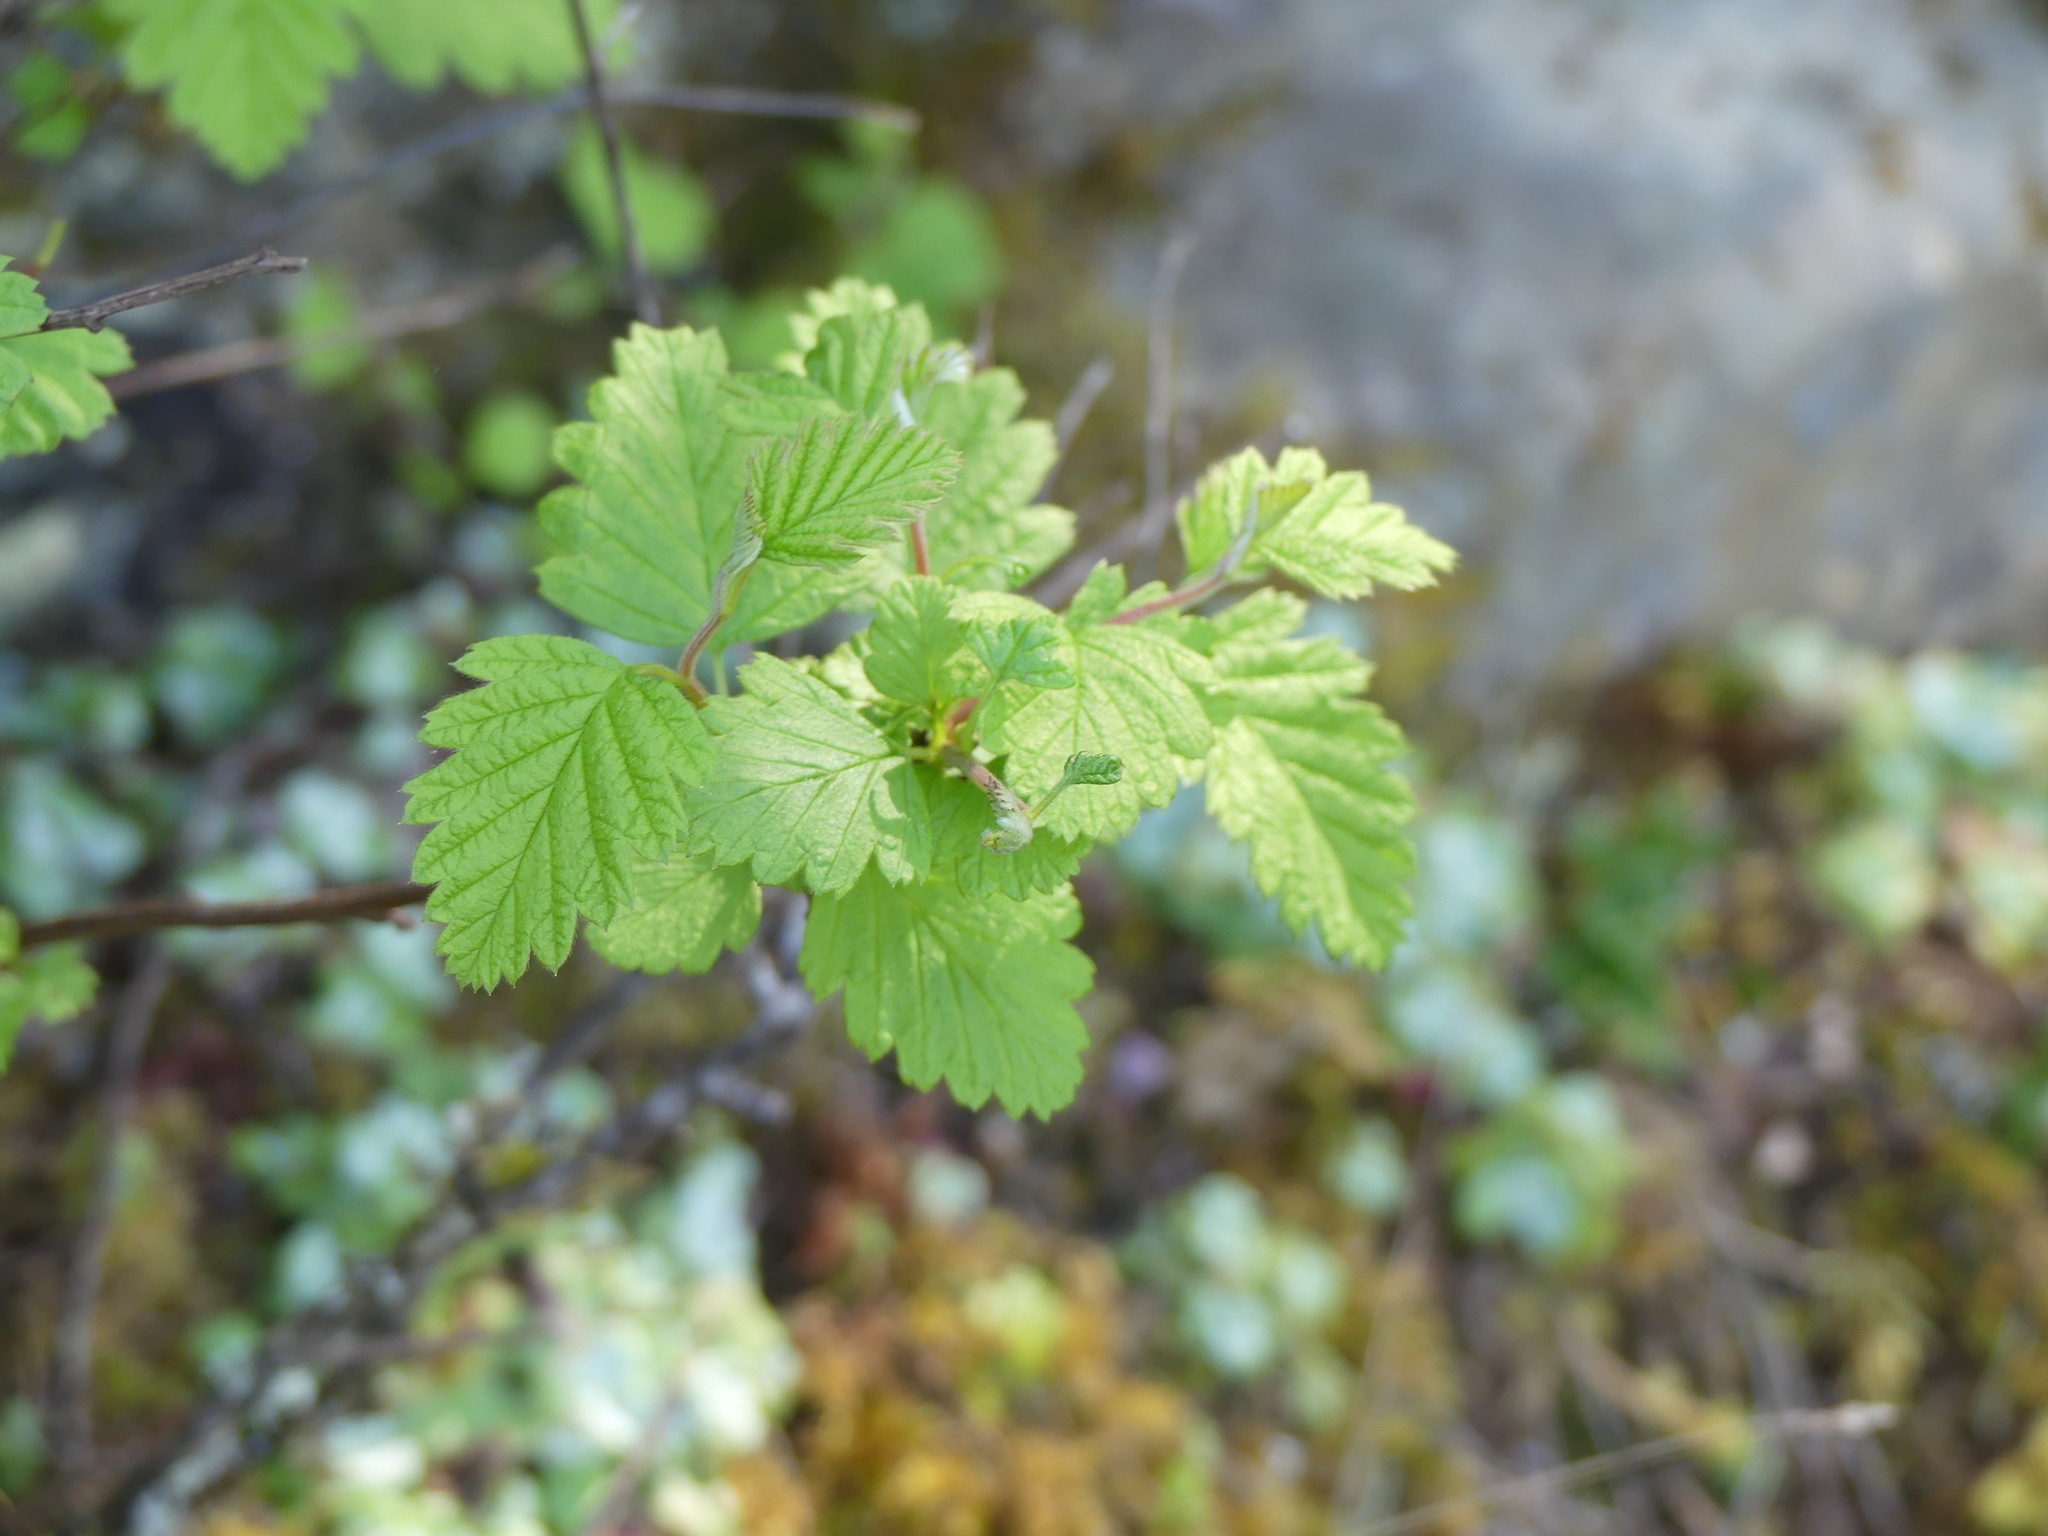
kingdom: Plantae
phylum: Tracheophyta
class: Magnoliopsida
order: Rosales
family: Rosaceae
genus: Holodiscus
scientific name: Holodiscus discolor
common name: Oceanspray
